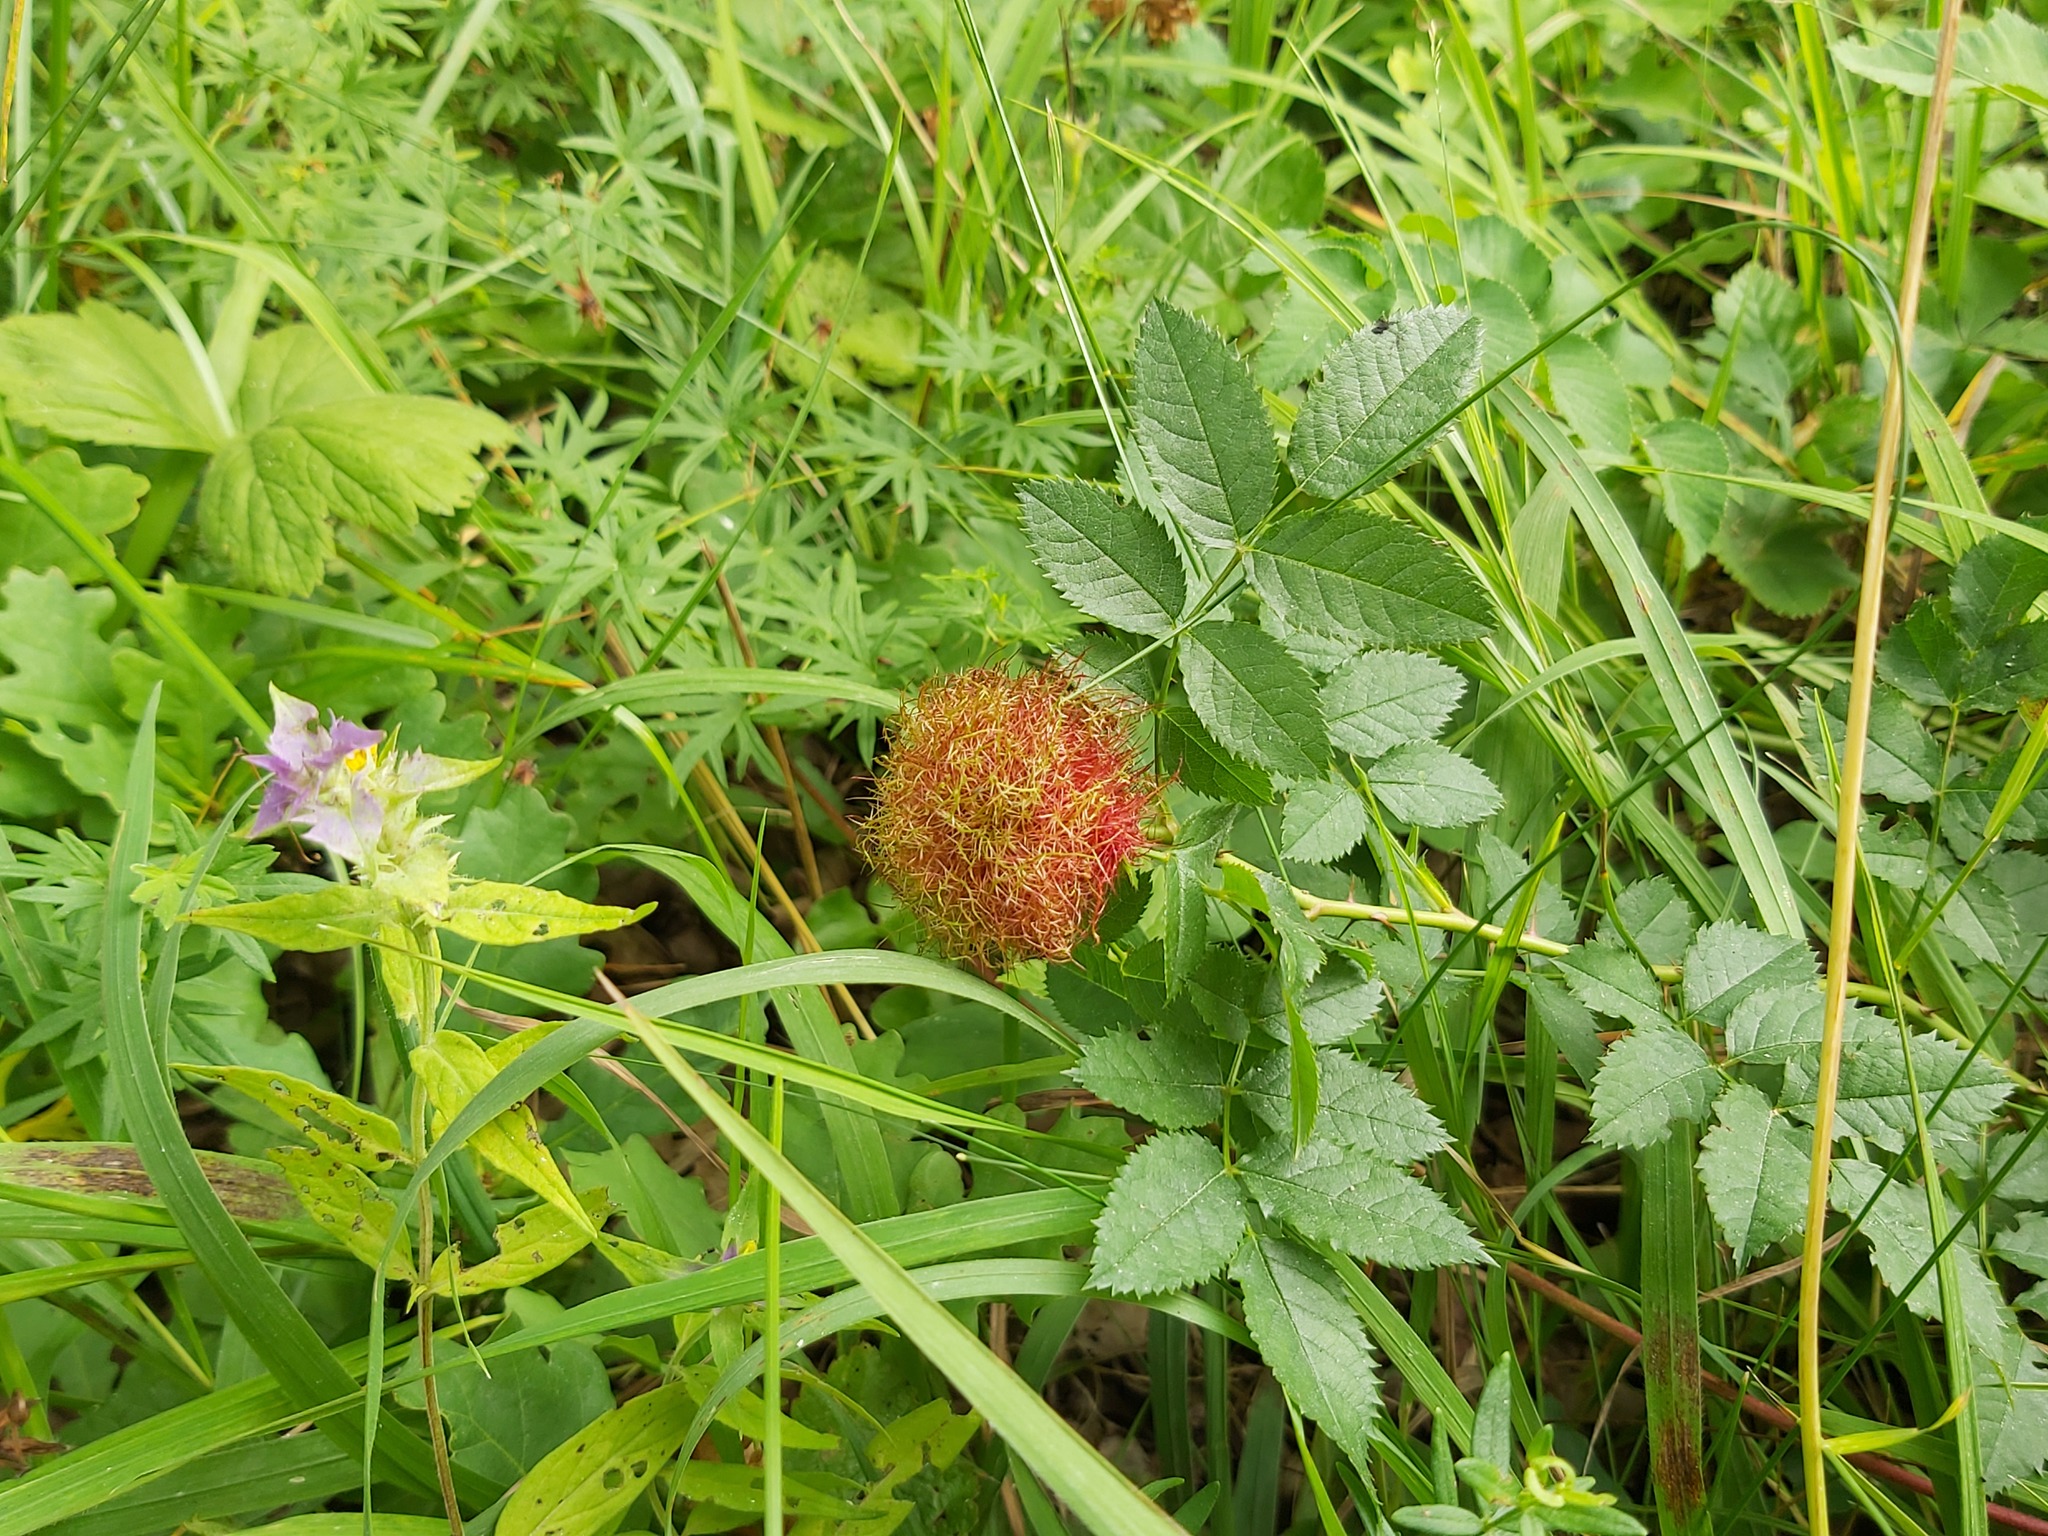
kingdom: Animalia
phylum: Arthropoda
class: Insecta
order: Hymenoptera
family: Cynipidae
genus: Diplolepis
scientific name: Diplolepis rosae
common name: Bedeguar gall
